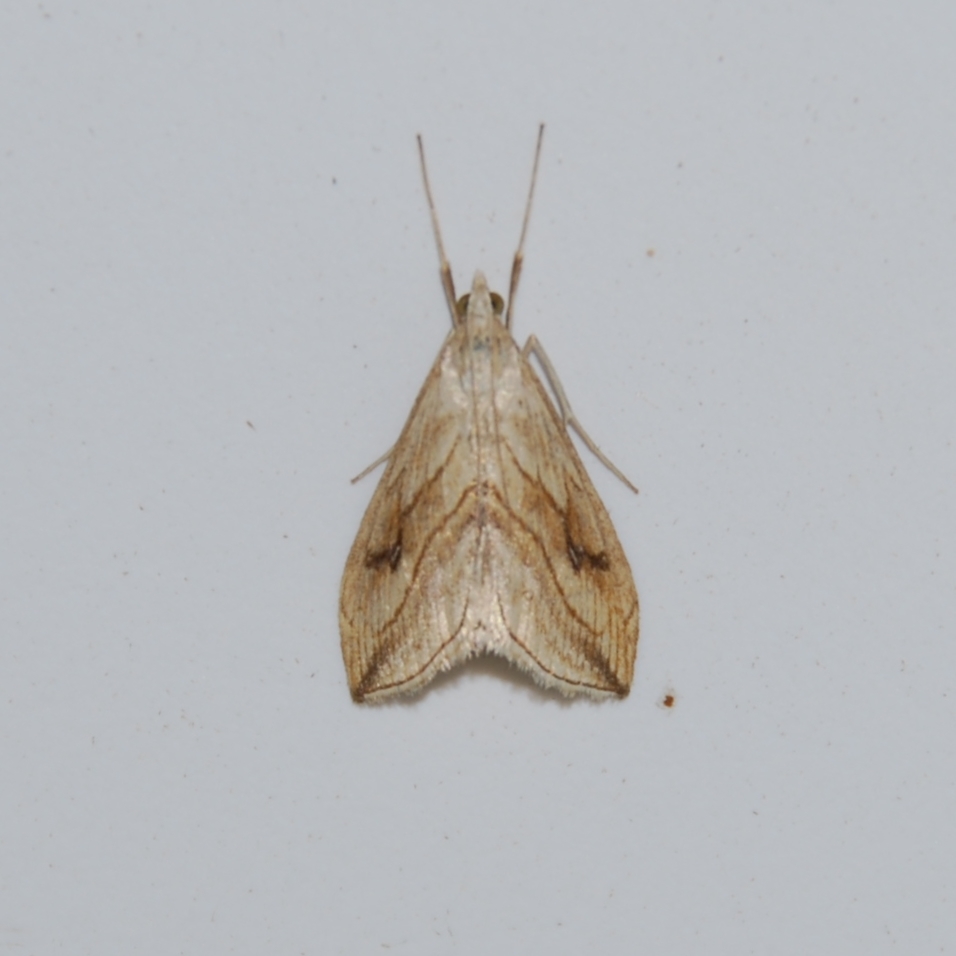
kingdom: Animalia
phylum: Arthropoda
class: Insecta
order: Lepidoptera
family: Crambidae
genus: Evergestis
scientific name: Evergestis forficalis
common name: Garden pebble
